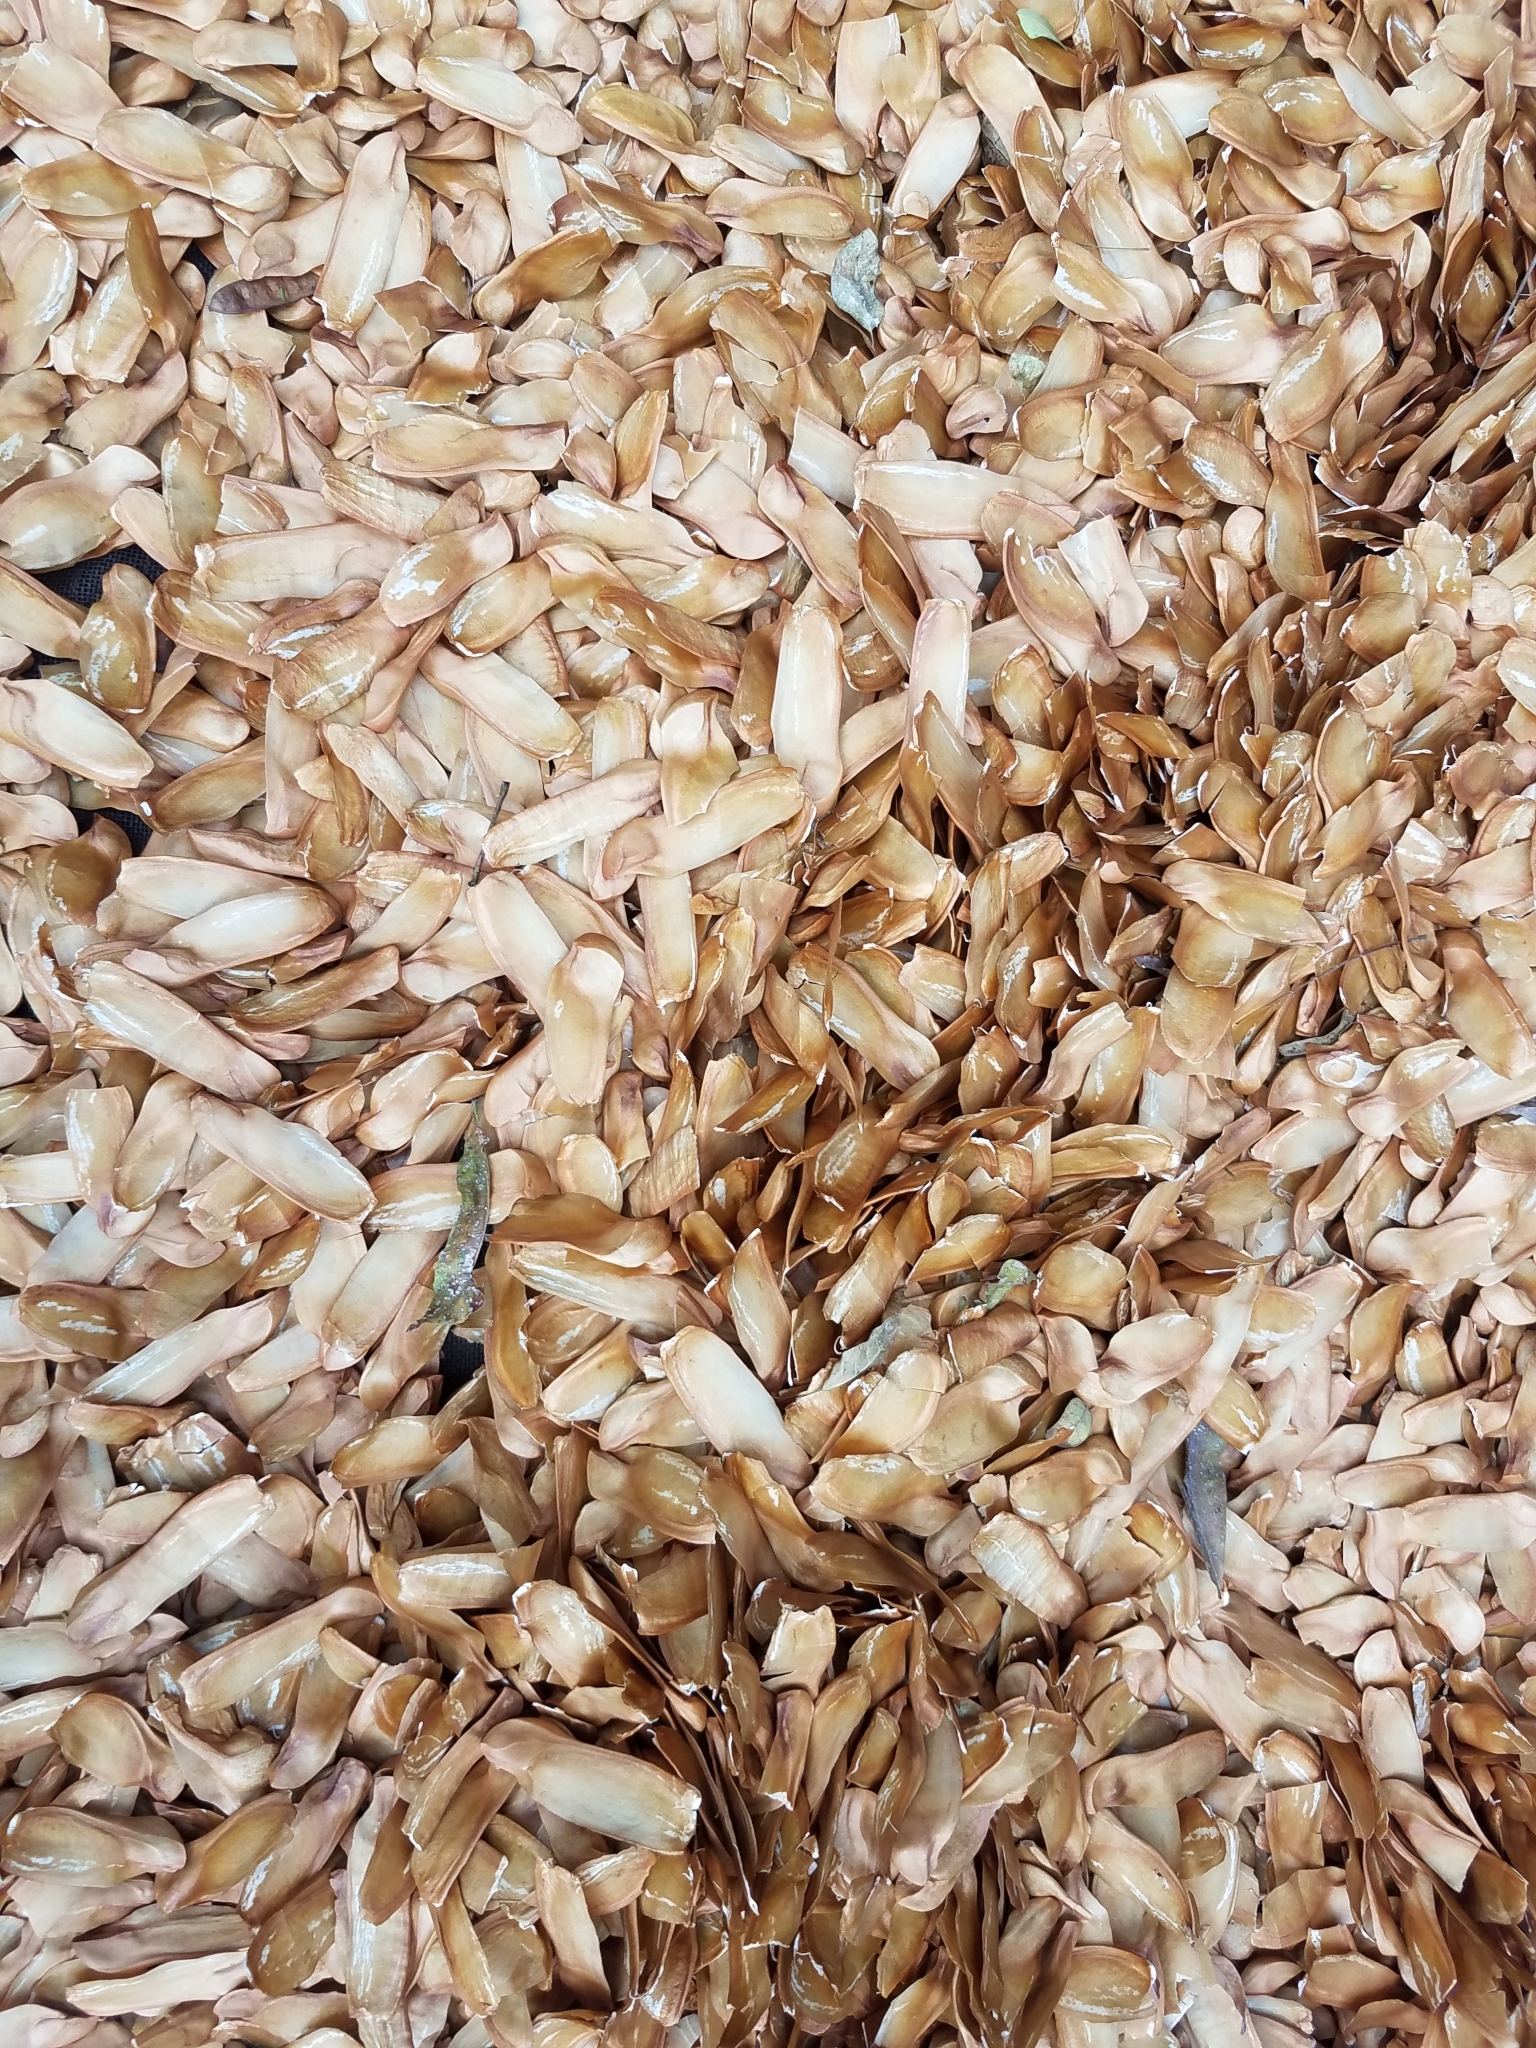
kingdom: Plantae
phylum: Tracheophyta
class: Magnoliopsida
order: Sapindales
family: Meliaceae
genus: Swietenia
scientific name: Swietenia humilis
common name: Pacific coast mahogany
